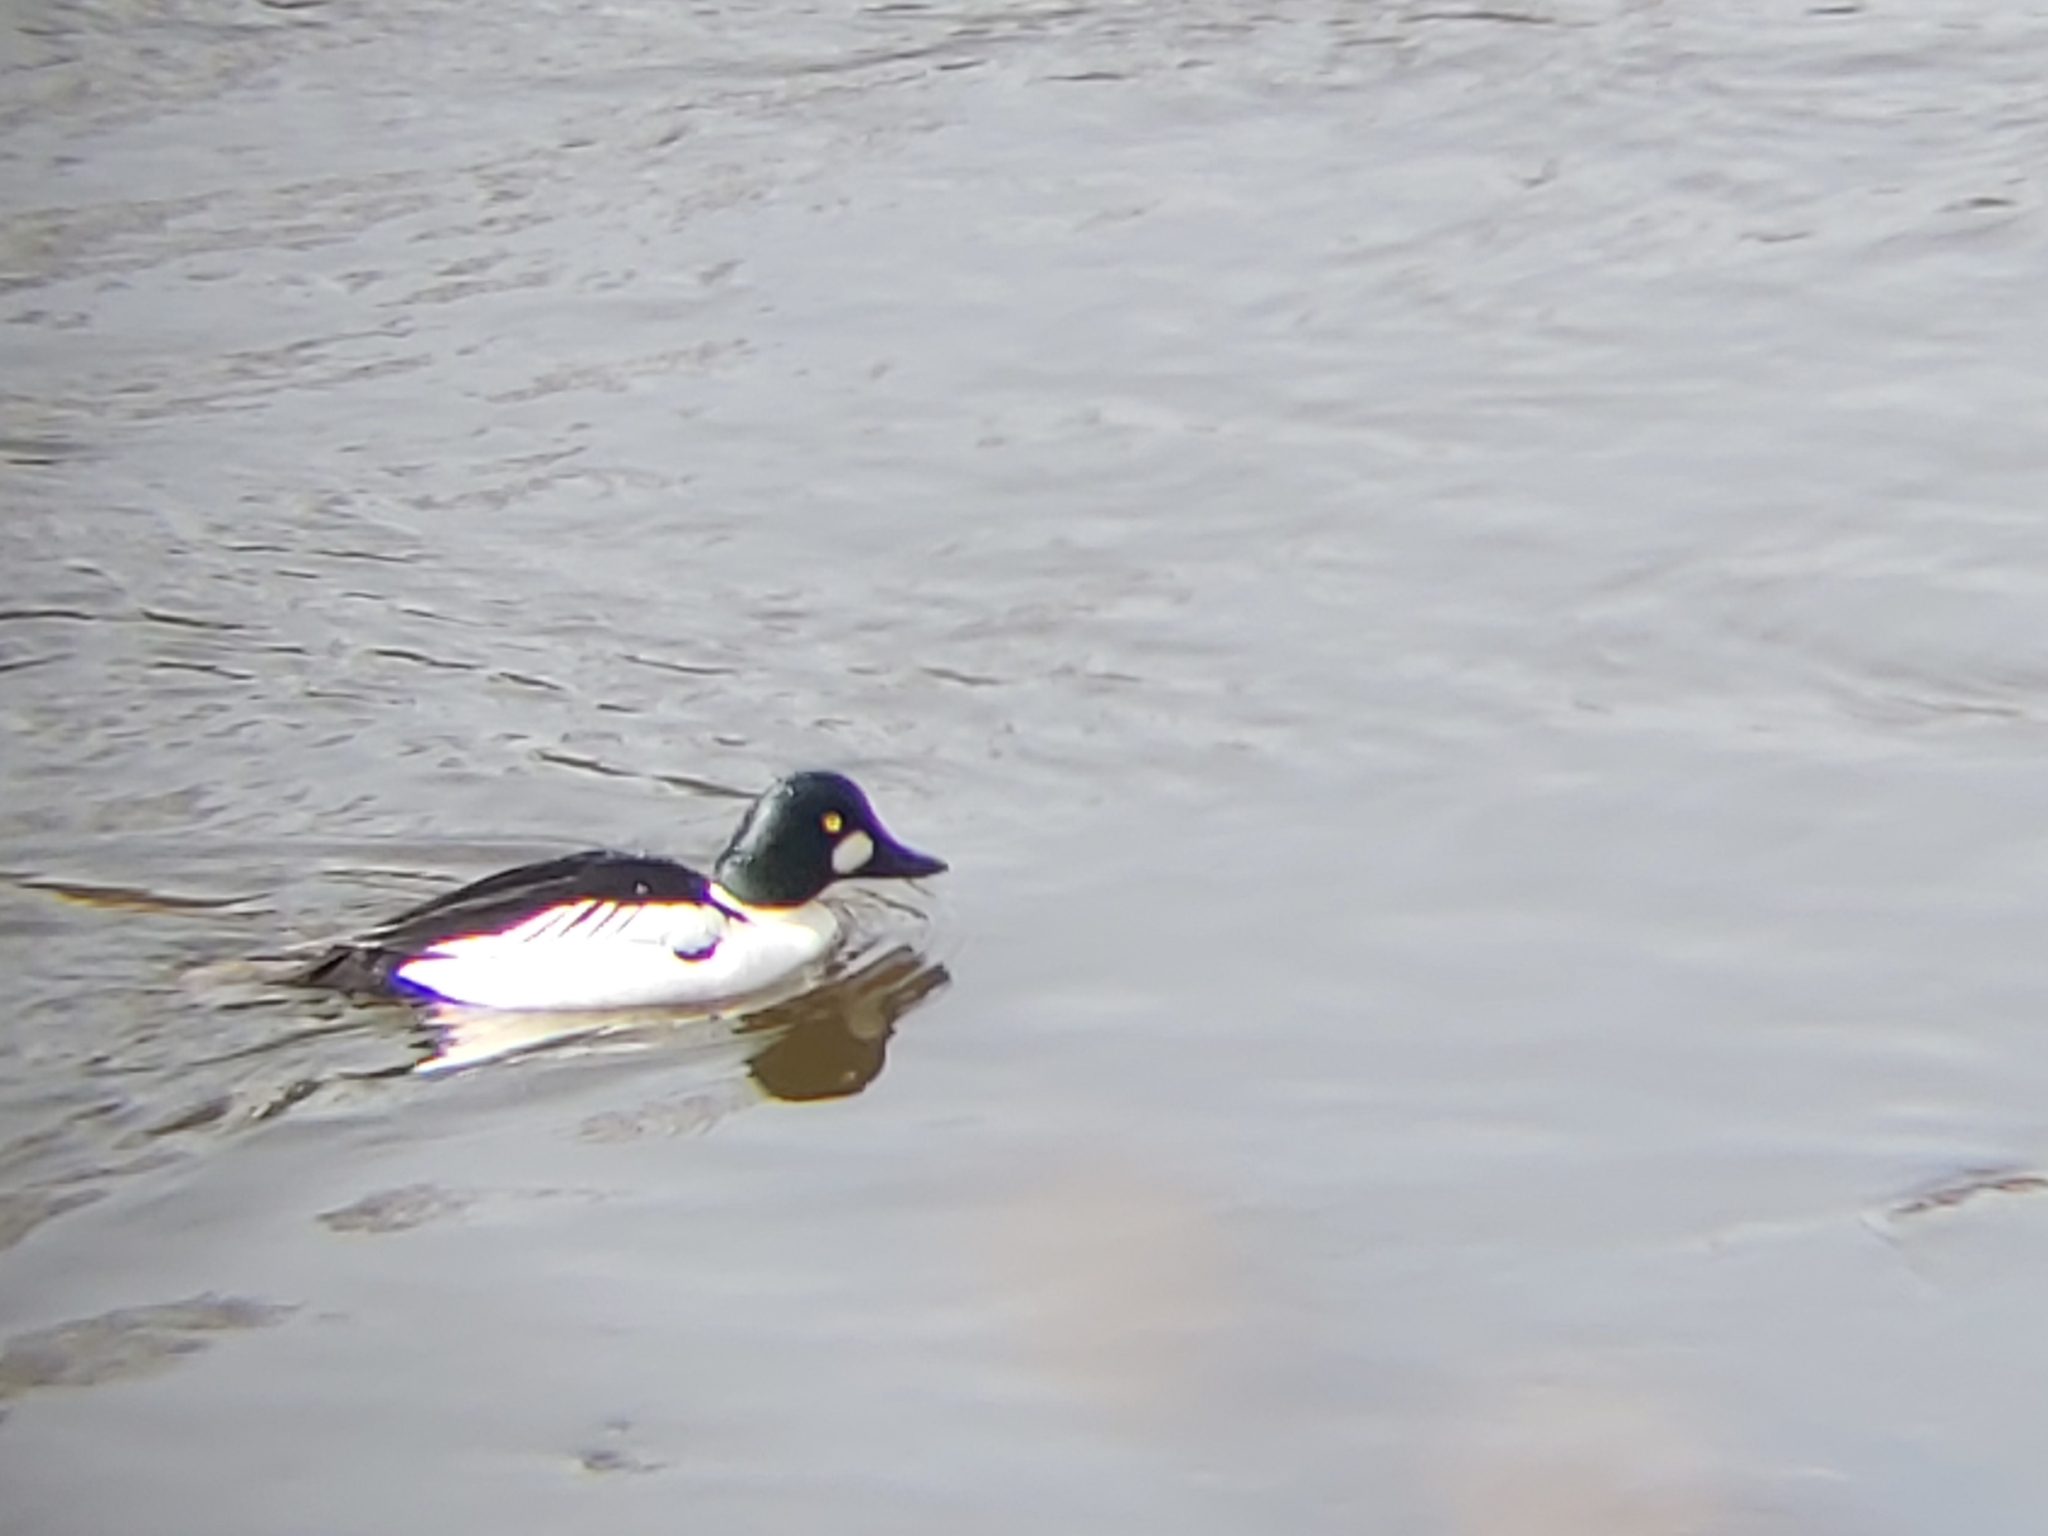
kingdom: Animalia
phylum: Chordata
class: Aves
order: Anseriformes
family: Anatidae
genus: Bucephala
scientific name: Bucephala clangula
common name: Common goldeneye
